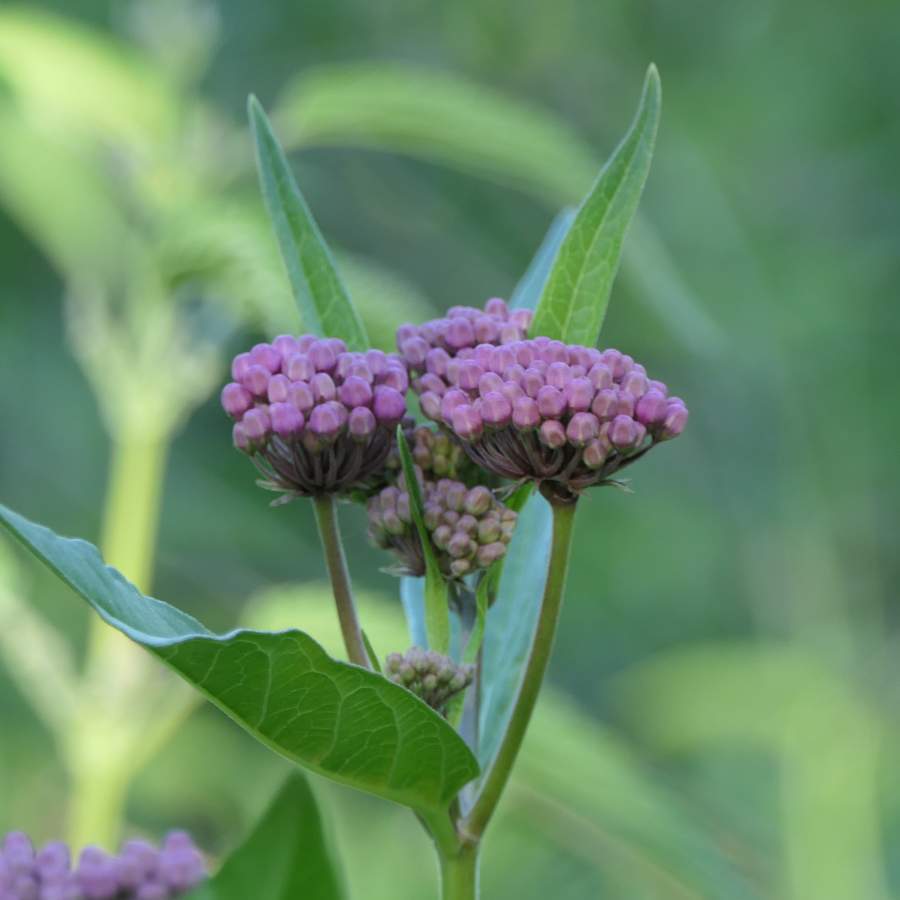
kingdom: Plantae
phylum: Tracheophyta
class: Magnoliopsida
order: Gentianales
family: Apocynaceae
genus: Asclepias
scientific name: Asclepias incarnata
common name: Swamp milkweed
